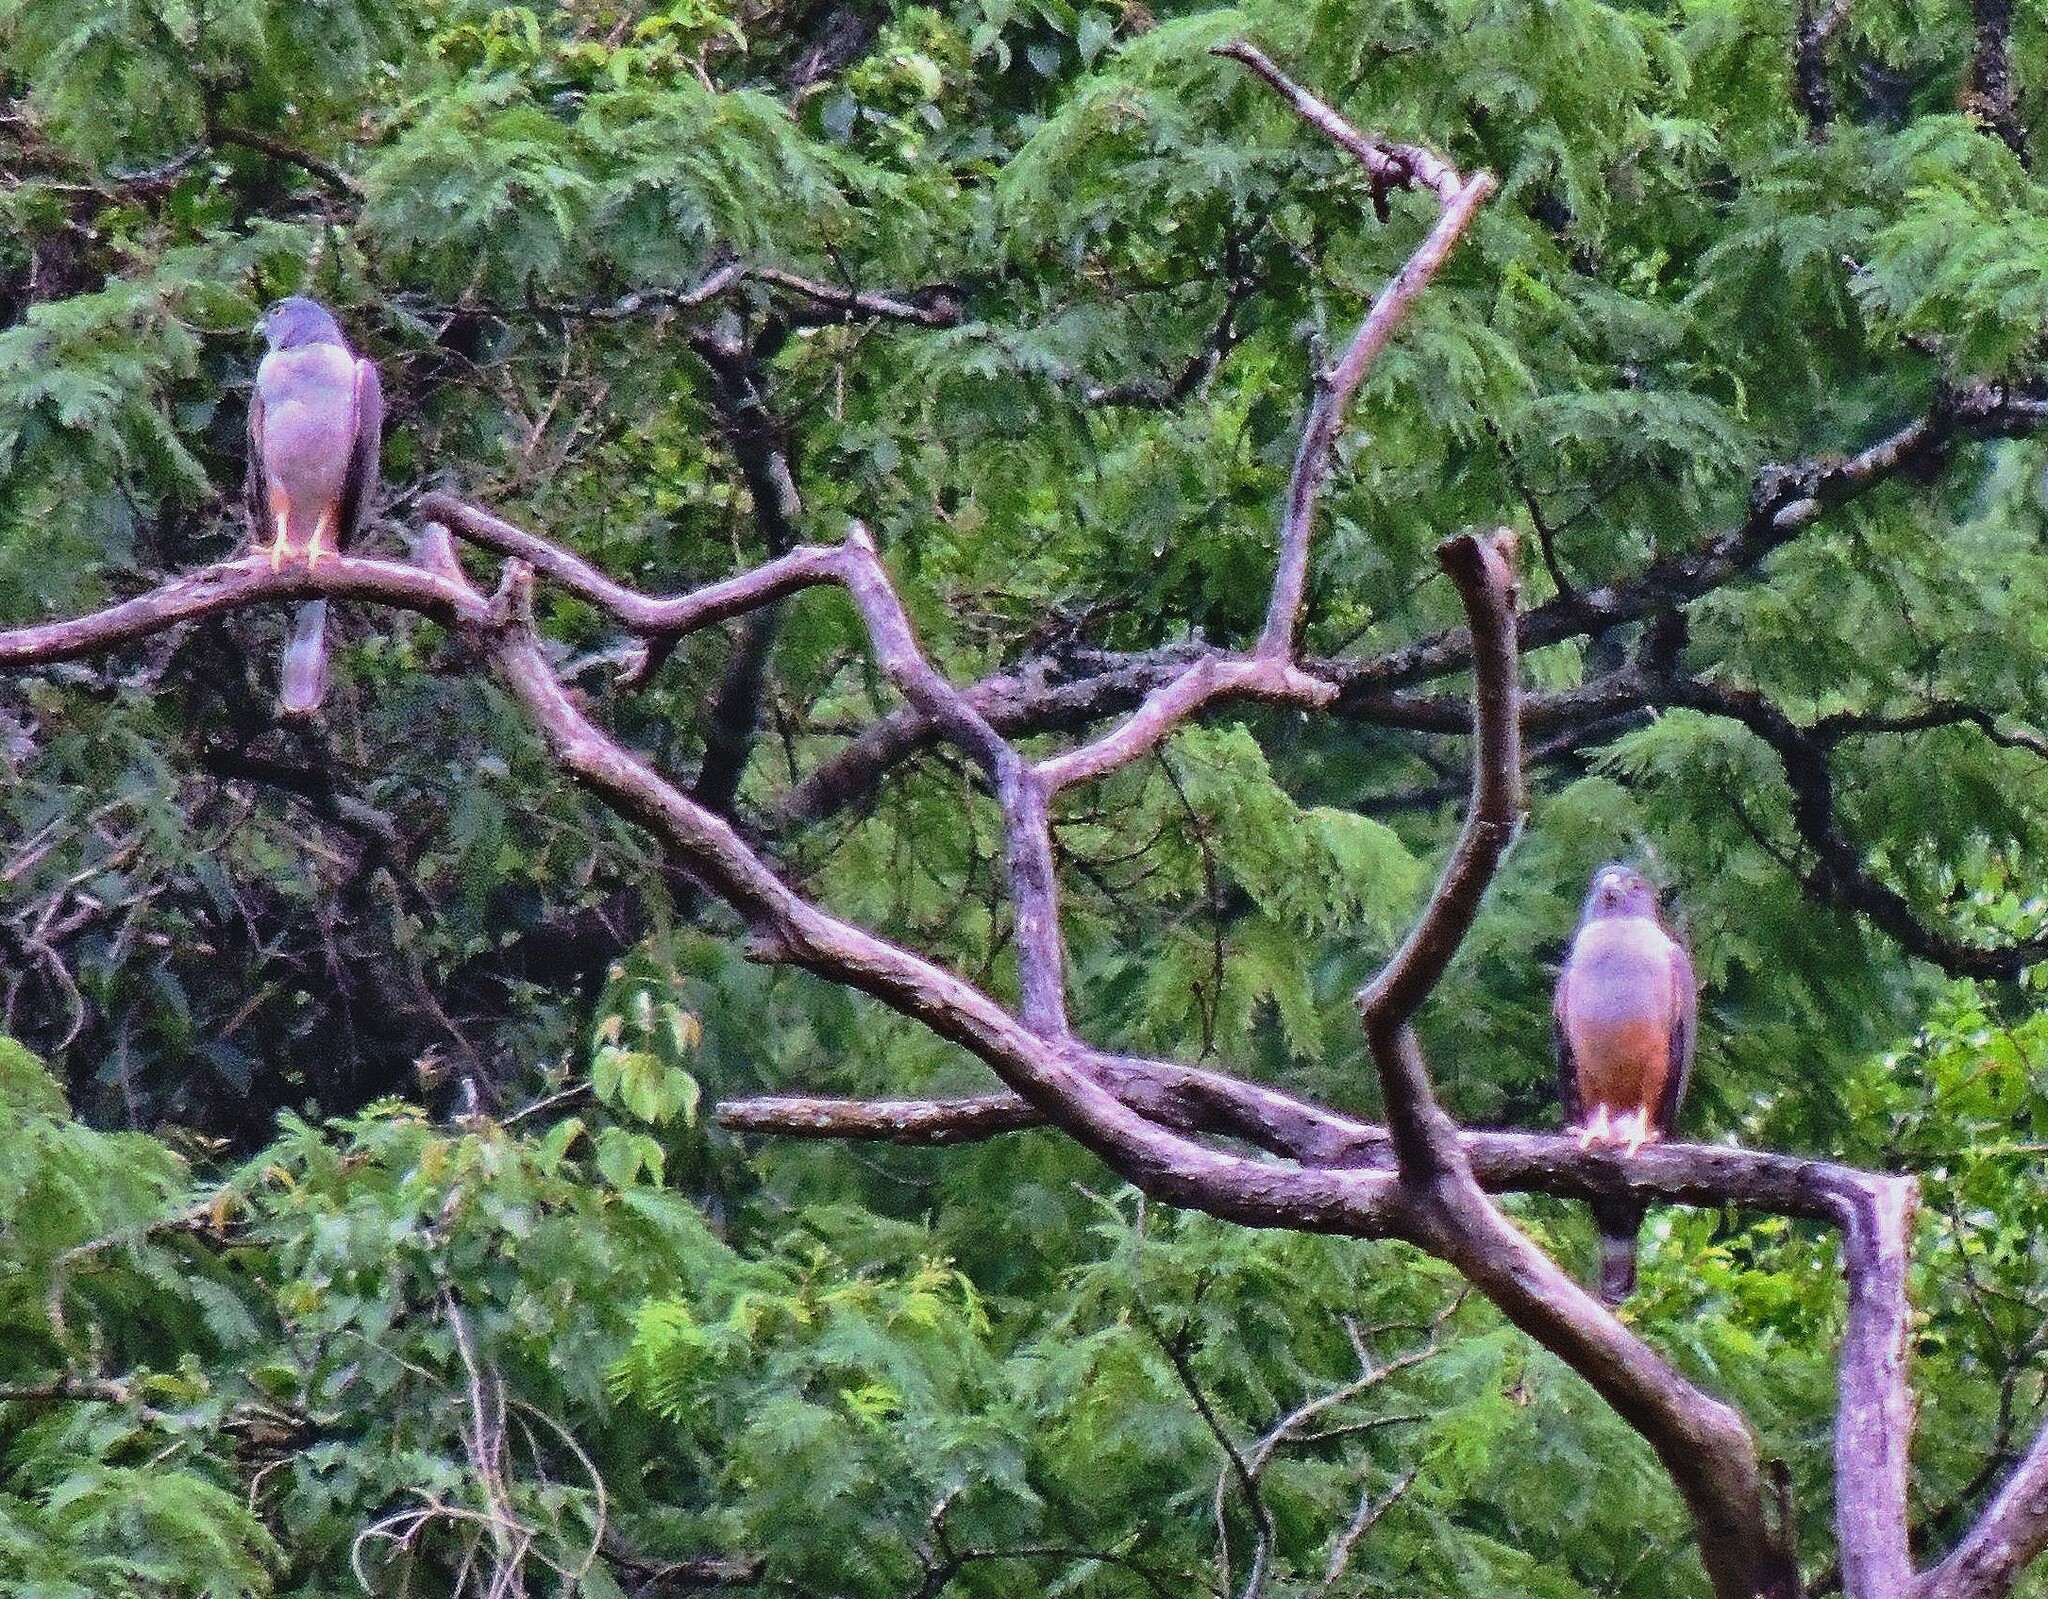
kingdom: Animalia
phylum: Chordata
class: Aves
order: Accipitriformes
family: Accipitridae
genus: Harpagus
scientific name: Harpagus diodon
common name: Rufous-thighed kite
